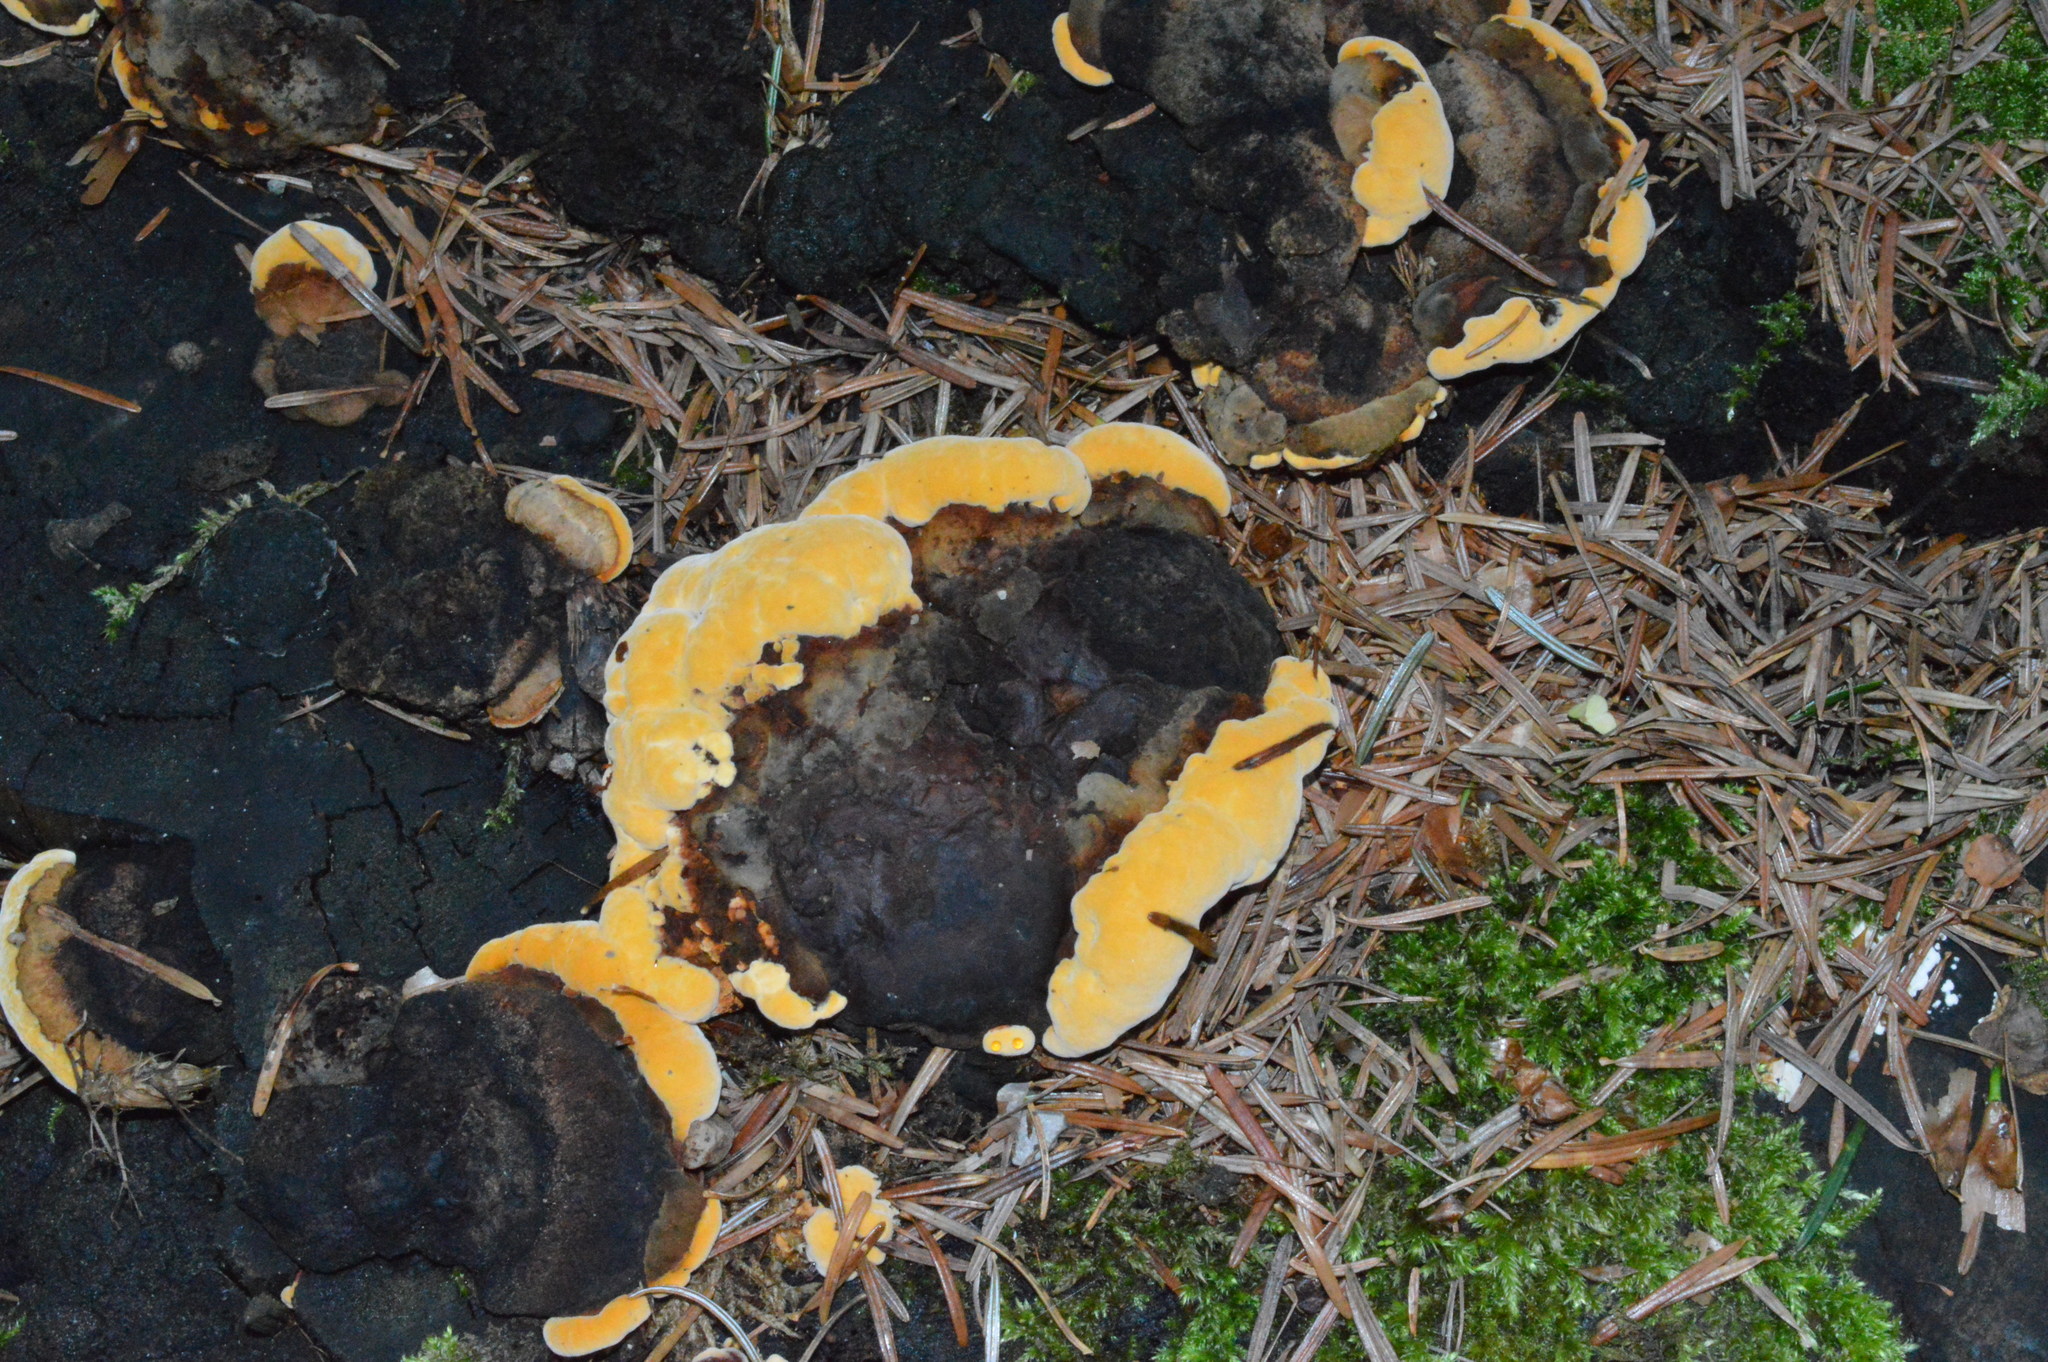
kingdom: Fungi
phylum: Basidiomycota
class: Agaricomycetes
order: Gloeophyllales
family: Gloeophyllaceae
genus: Gloeophyllum
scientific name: Gloeophyllum odoratum
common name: Anise mazegill
